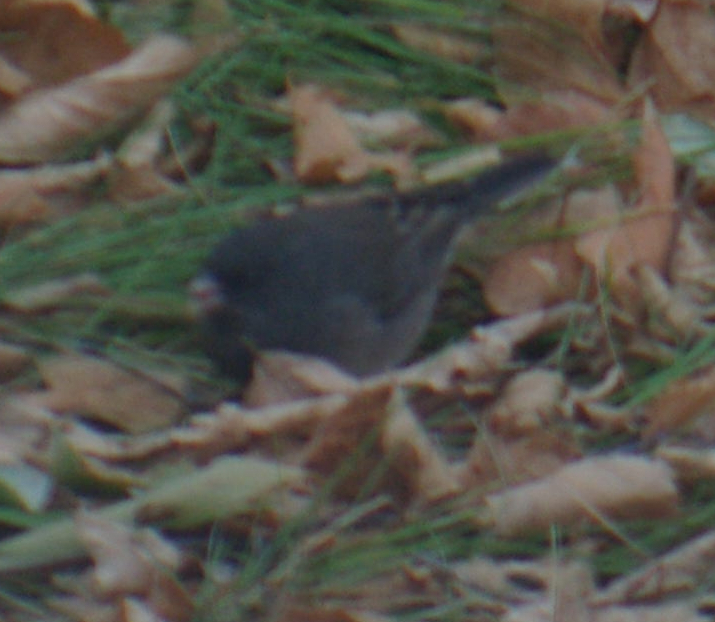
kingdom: Animalia
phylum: Chordata
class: Aves
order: Passeriformes
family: Passerellidae
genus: Junco
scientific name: Junco hyemalis
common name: Dark-eyed junco
